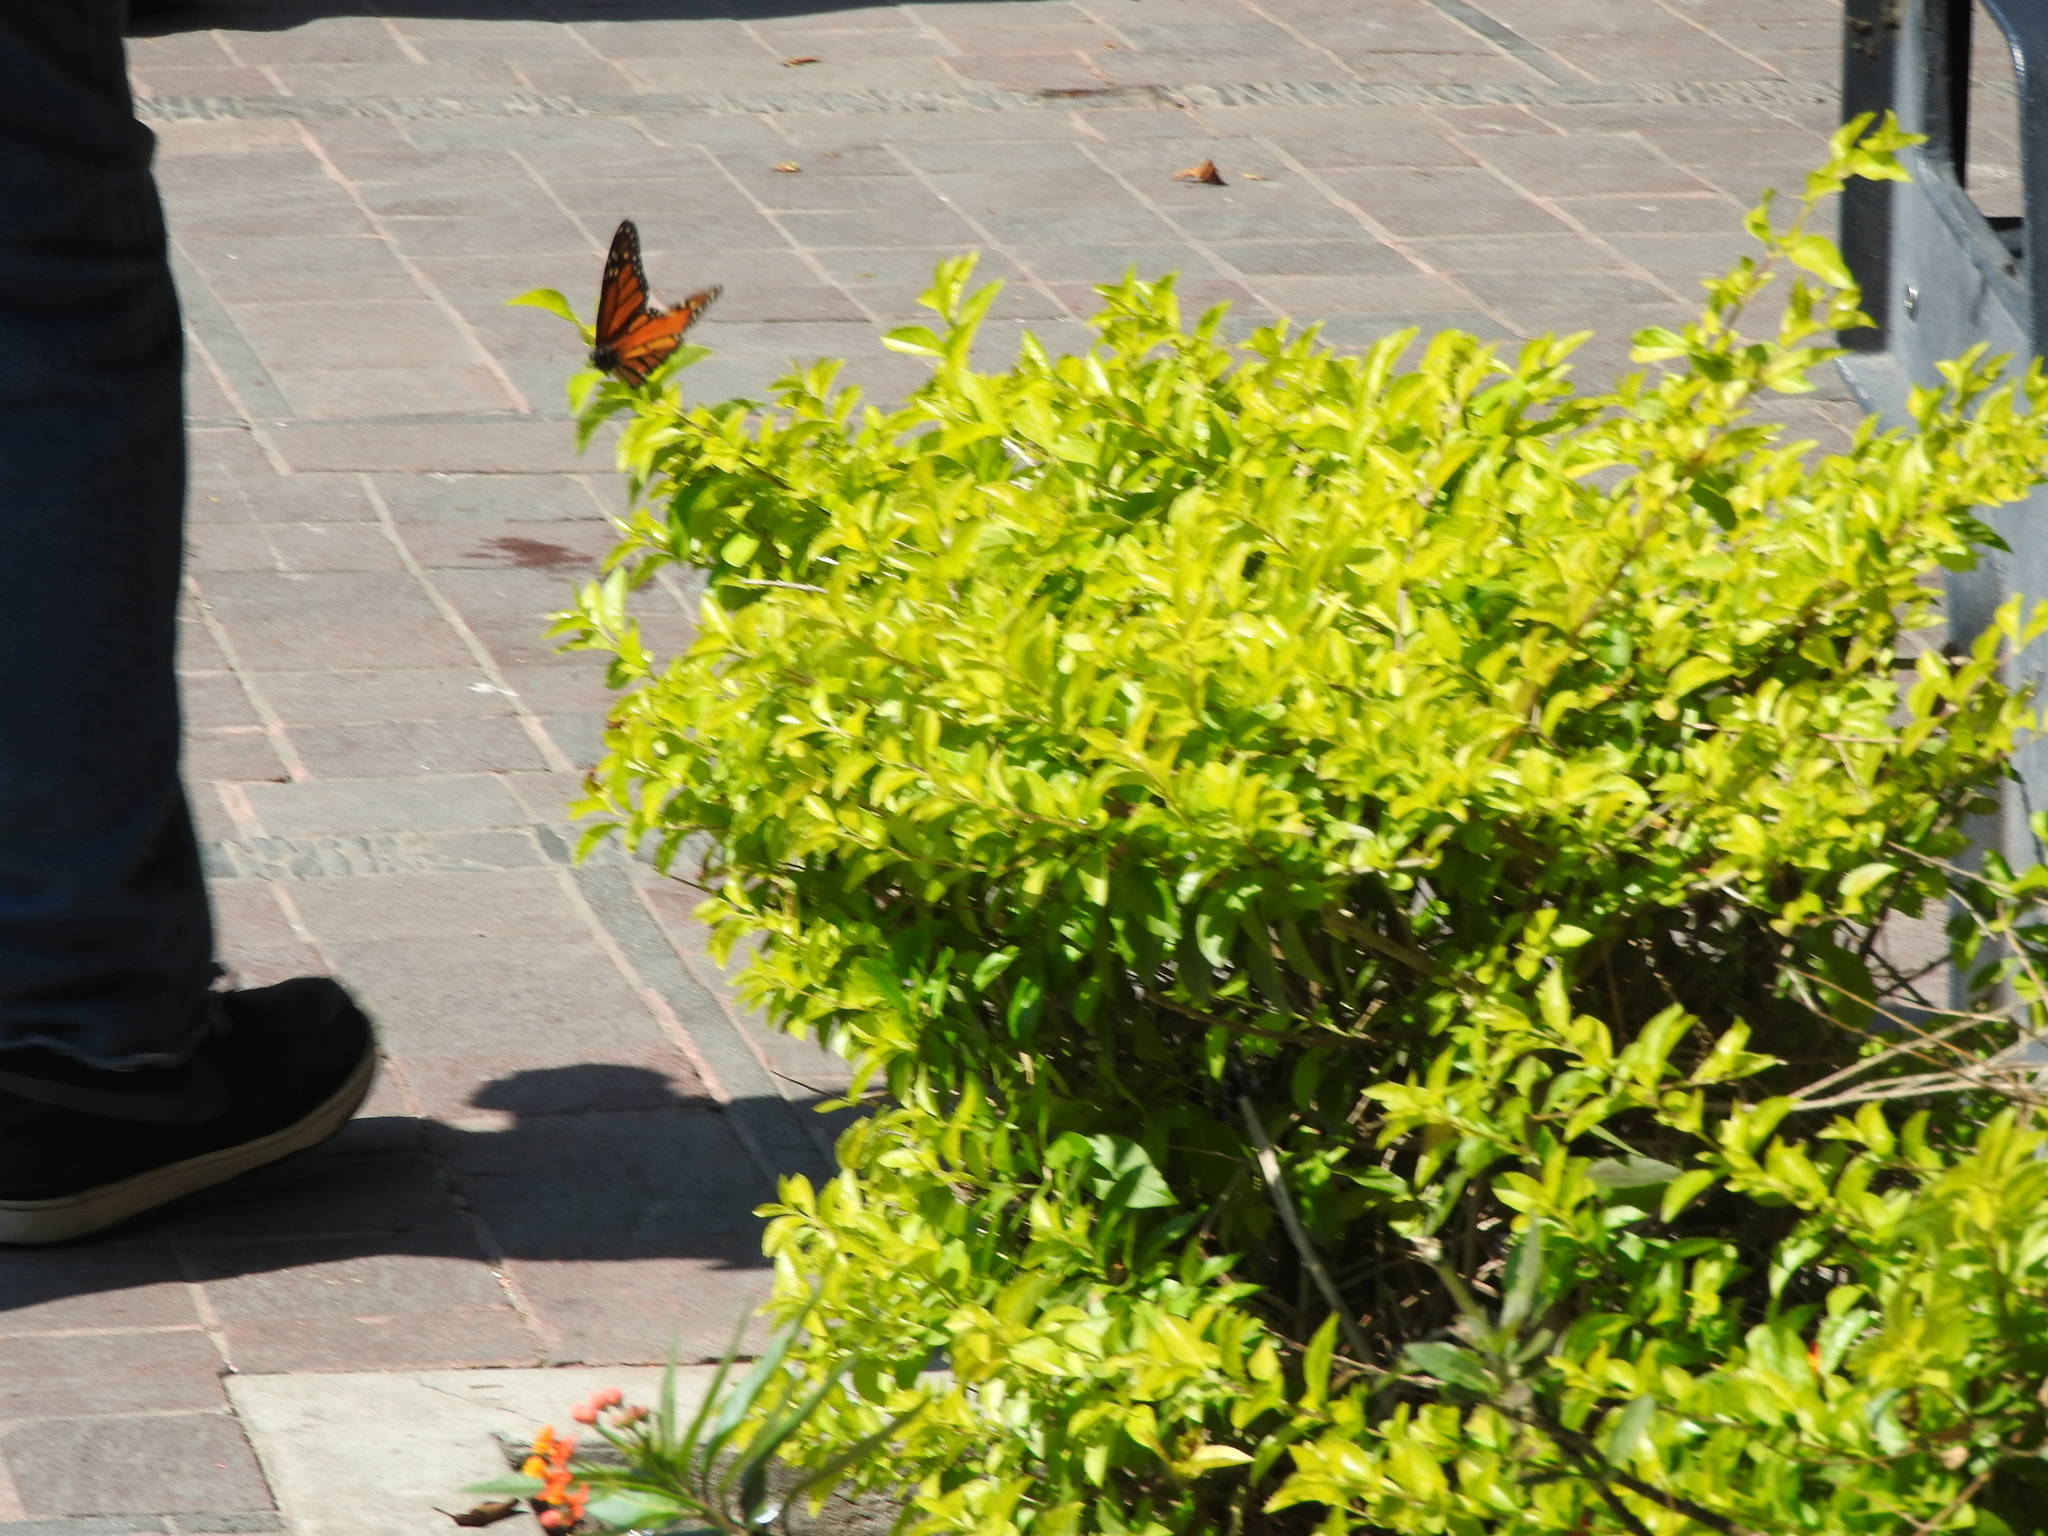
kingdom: Animalia
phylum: Arthropoda
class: Insecta
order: Lepidoptera
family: Nymphalidae
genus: Danaus
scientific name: Danaus plexippus
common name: Monarch
